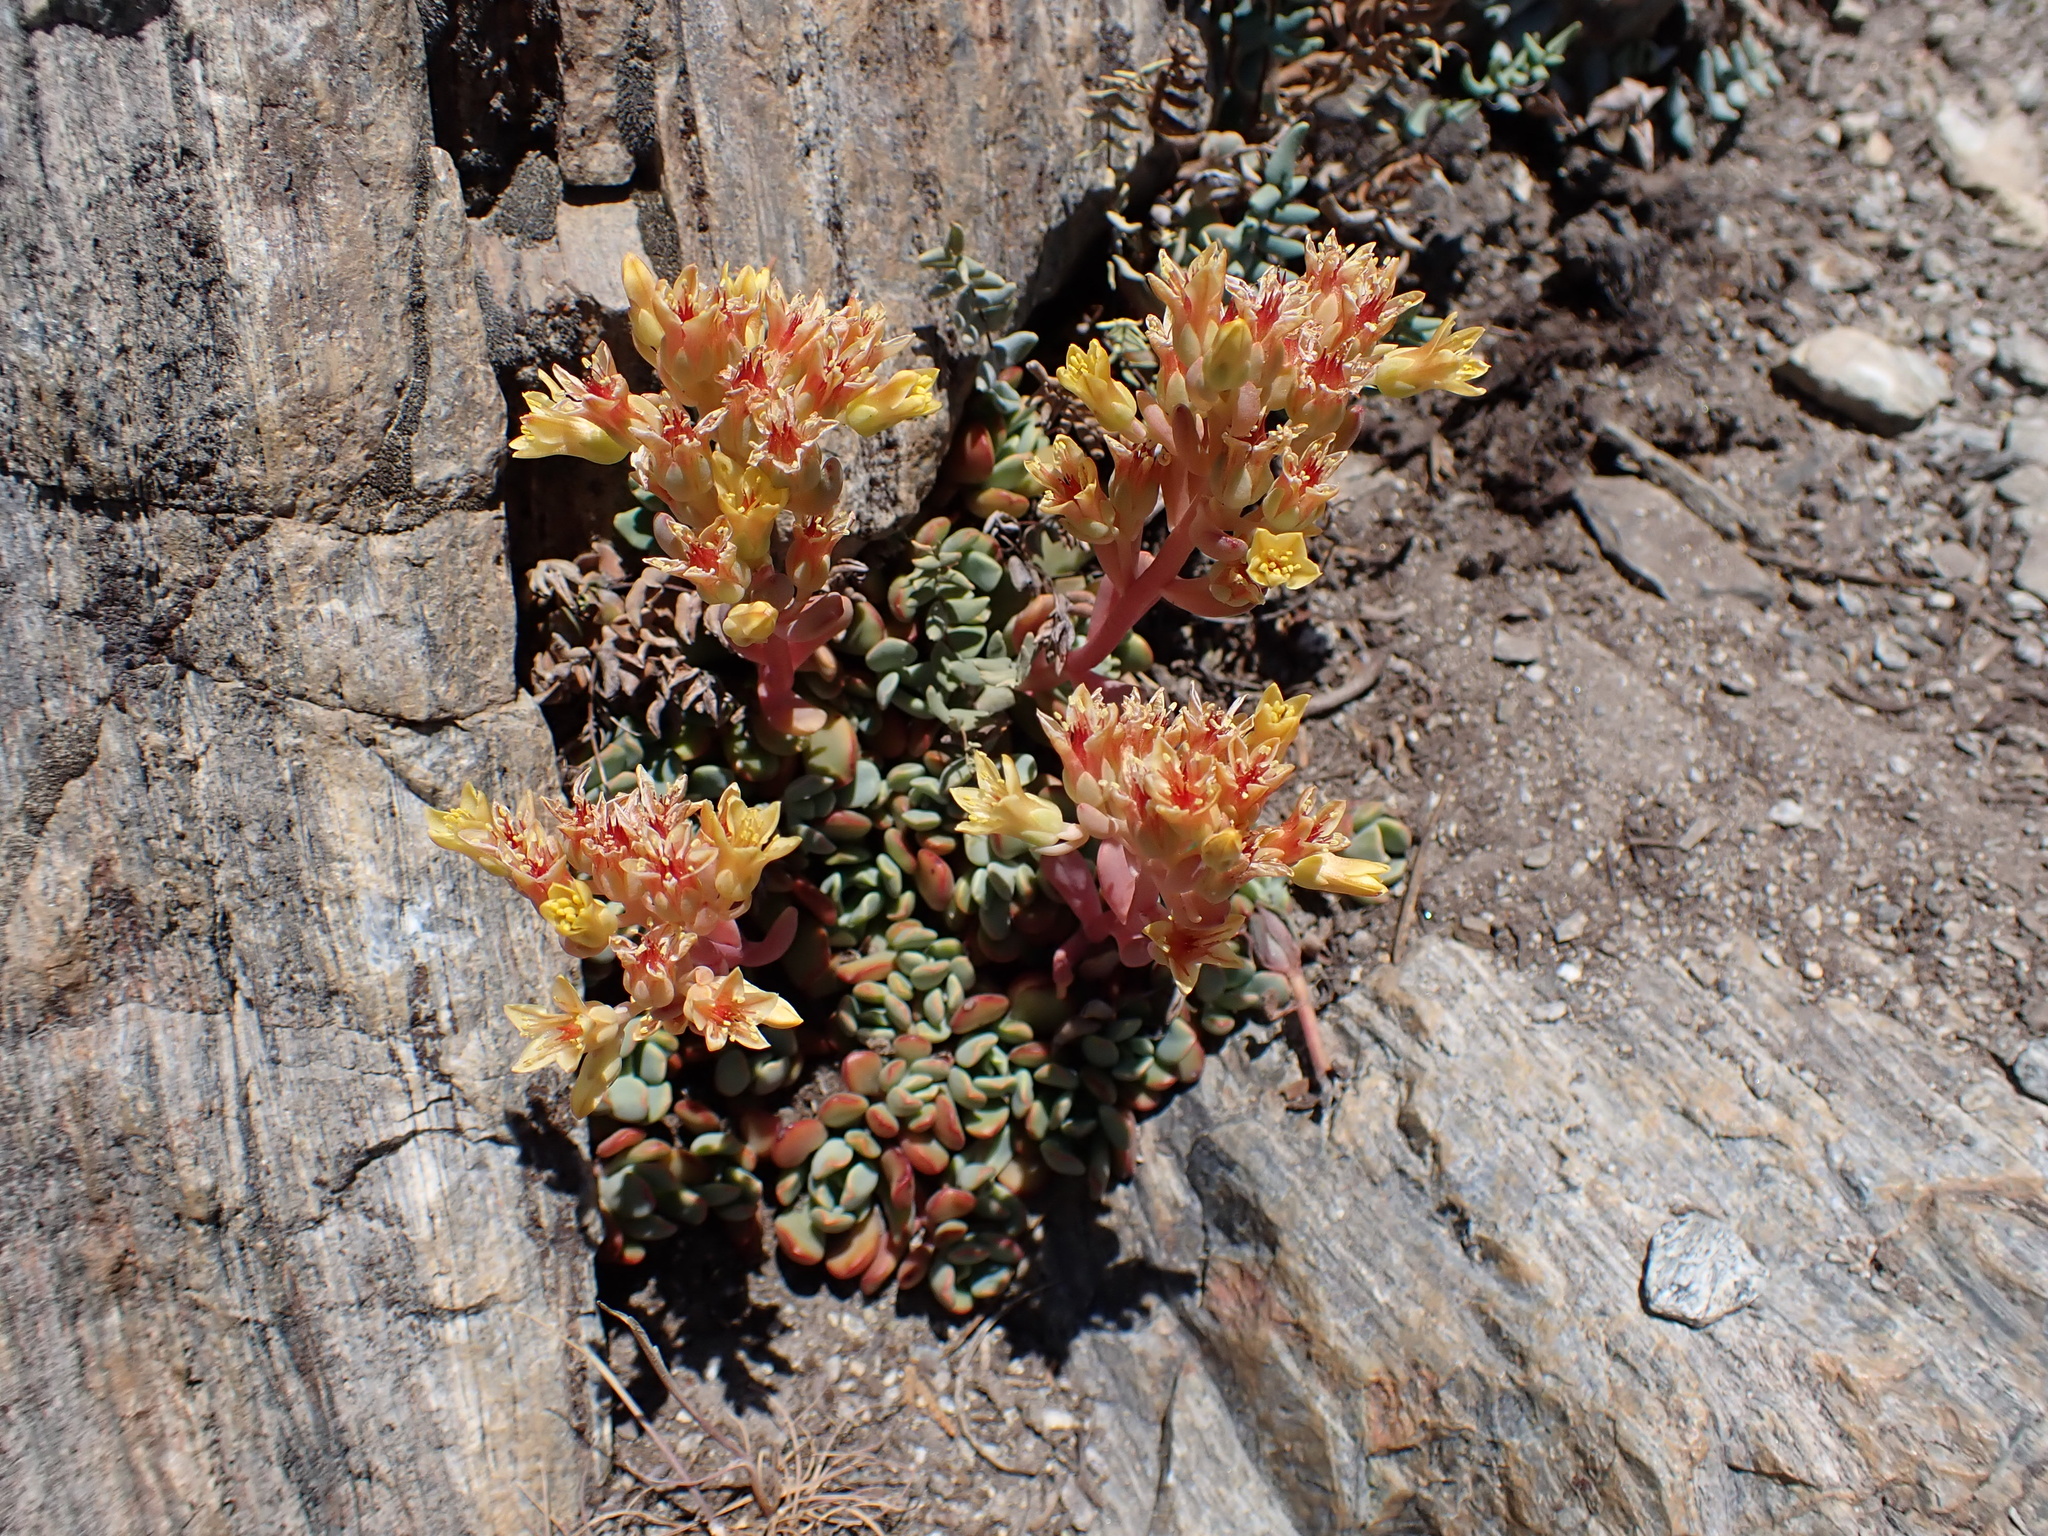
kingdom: Plantae
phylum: Tracheophyta
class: Magnoliopsida
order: Saxifragales
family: Crassulaceae
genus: Sedum
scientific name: Sedum obtusatum
